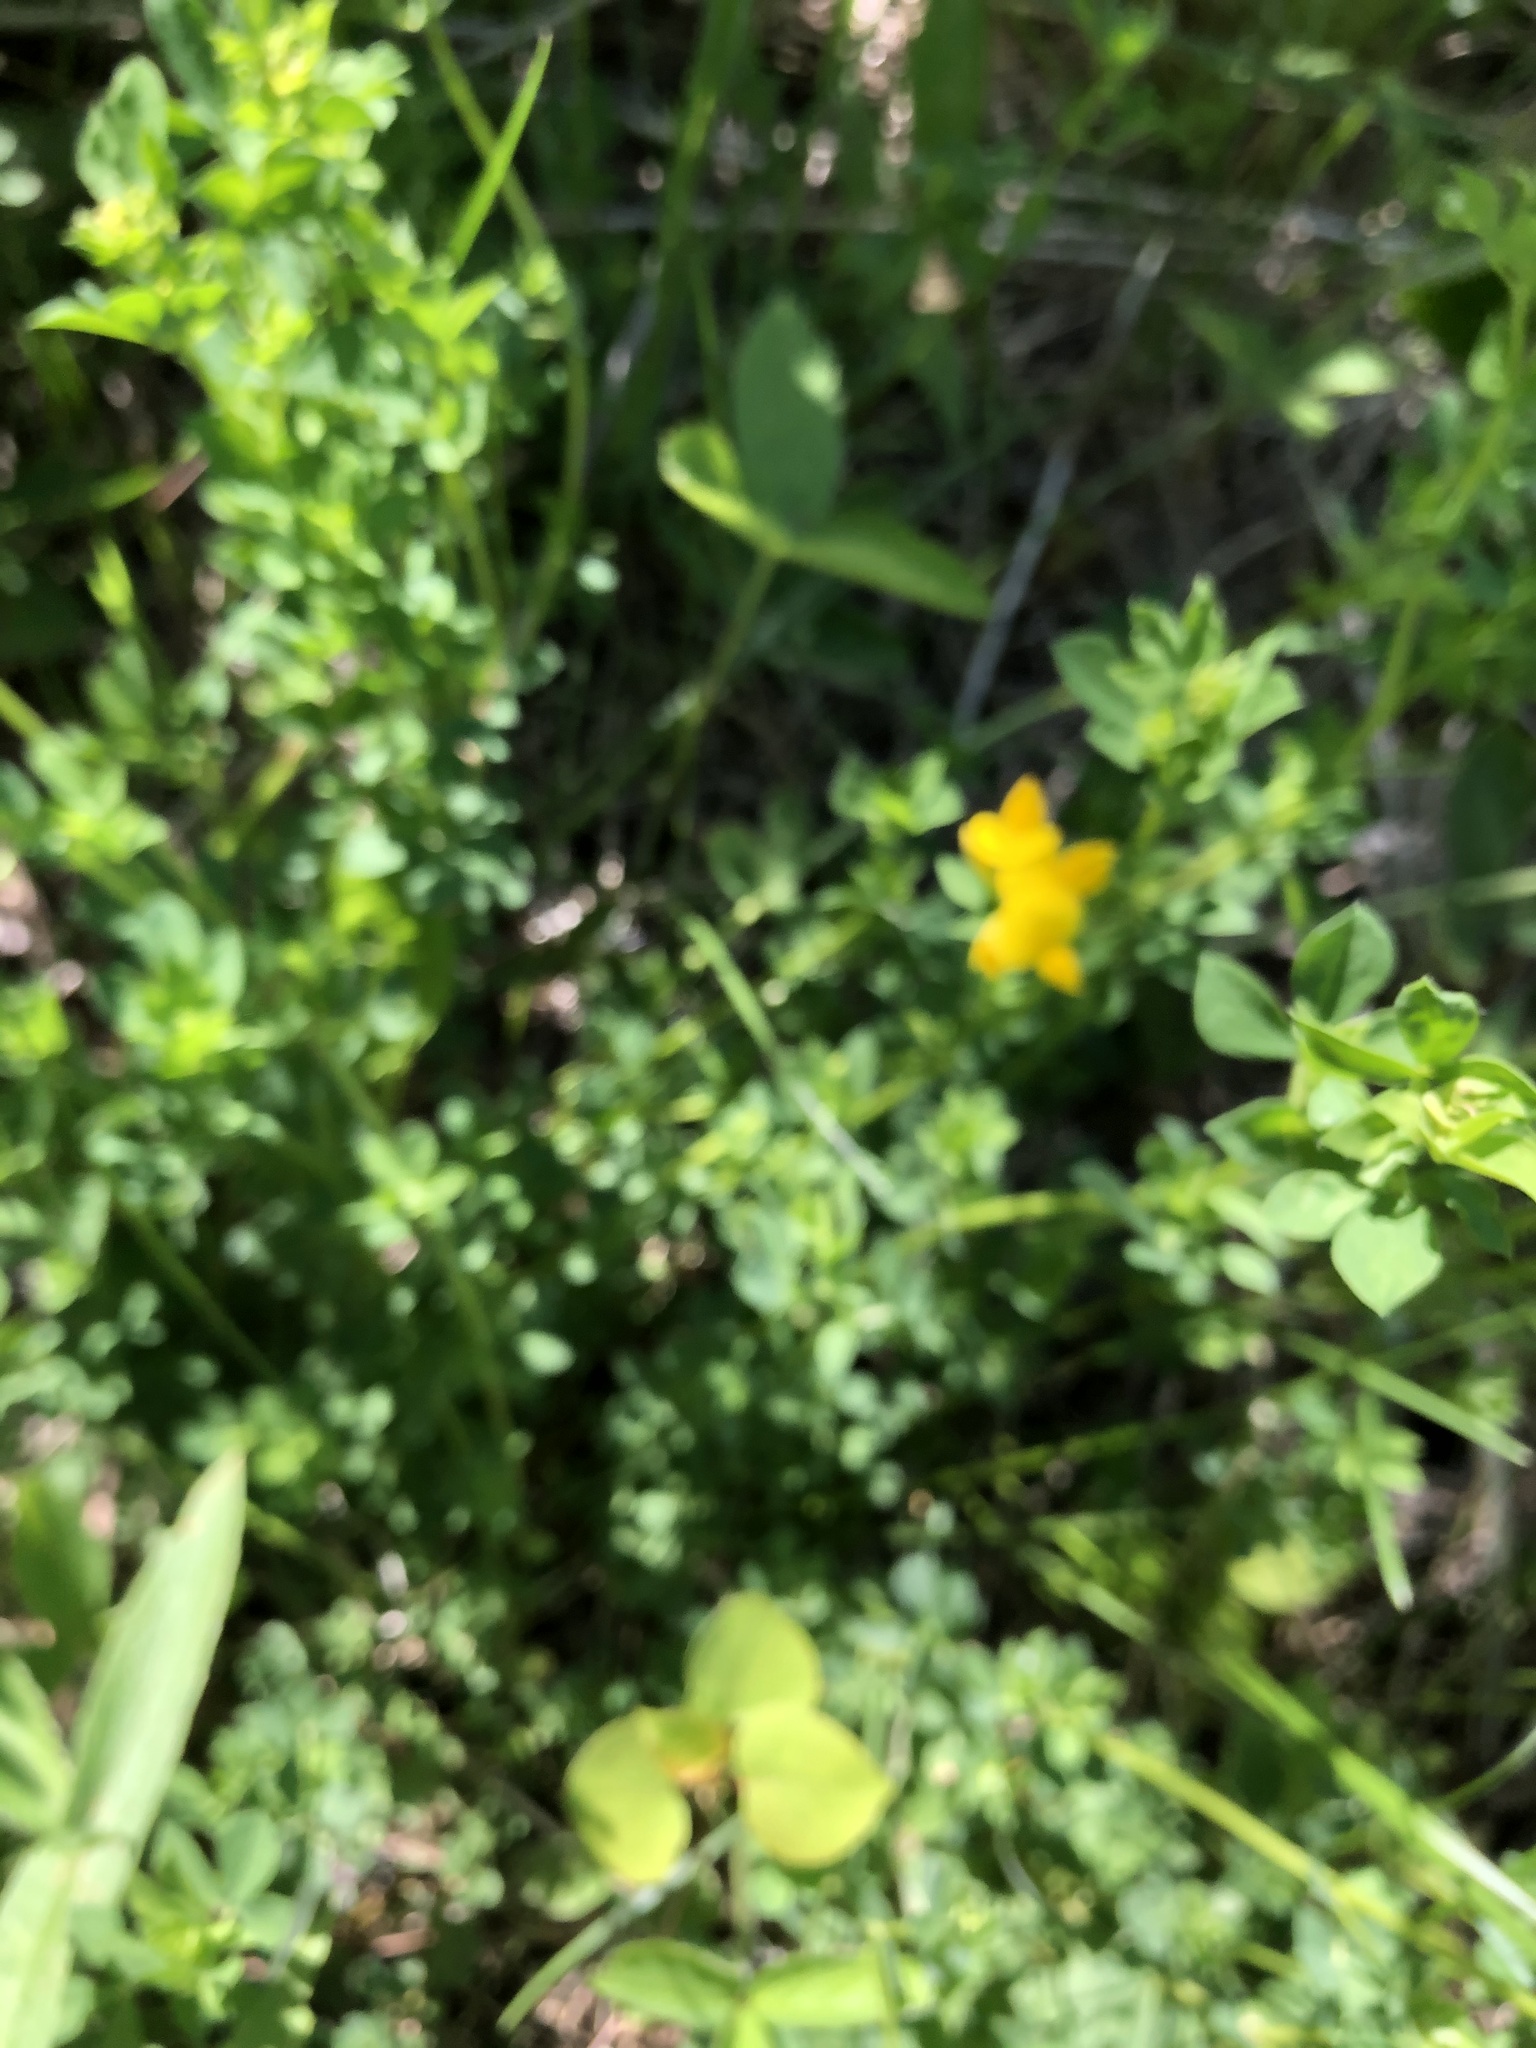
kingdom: Plantae
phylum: Tracheophyta
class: Magnoliopsida
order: Fabales
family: Fabaceae
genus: Lotus
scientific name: Lotus corniculatus
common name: Common bird's-foot-trefoil
